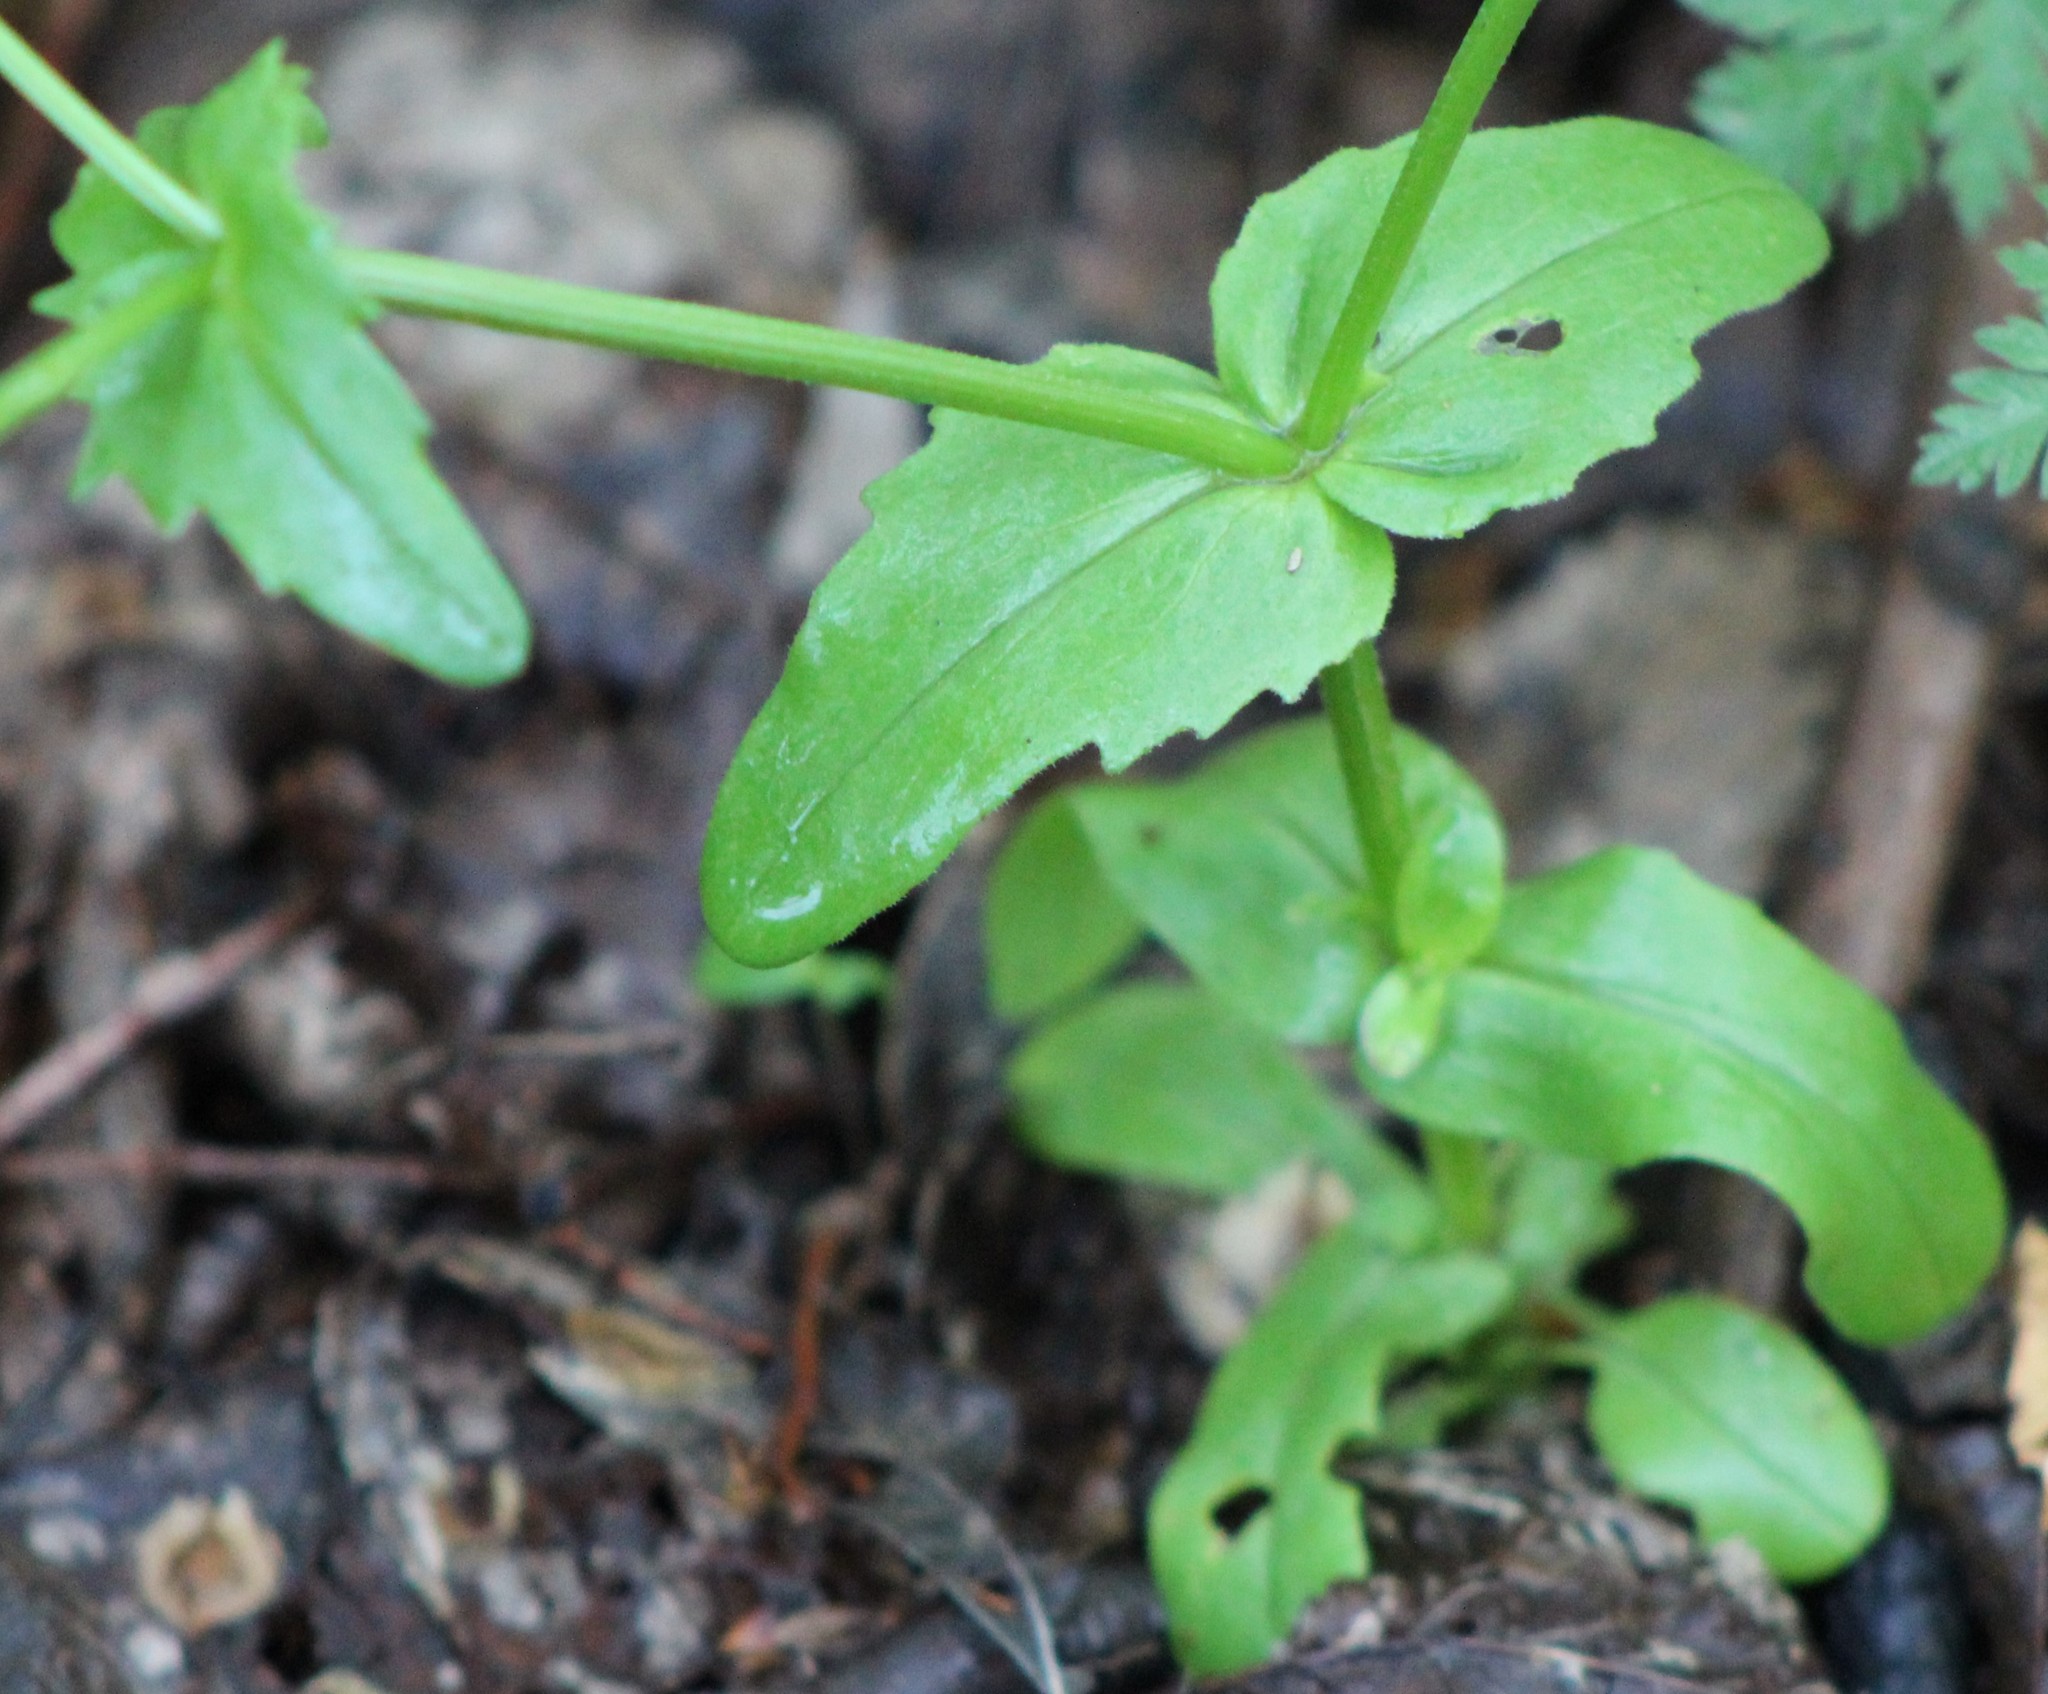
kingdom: Plantae
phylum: Tracheophyta
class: Magnoliopsida
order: Dipsacales
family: Caprifoliaceae
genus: Valerianella
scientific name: Valerianella radiata
